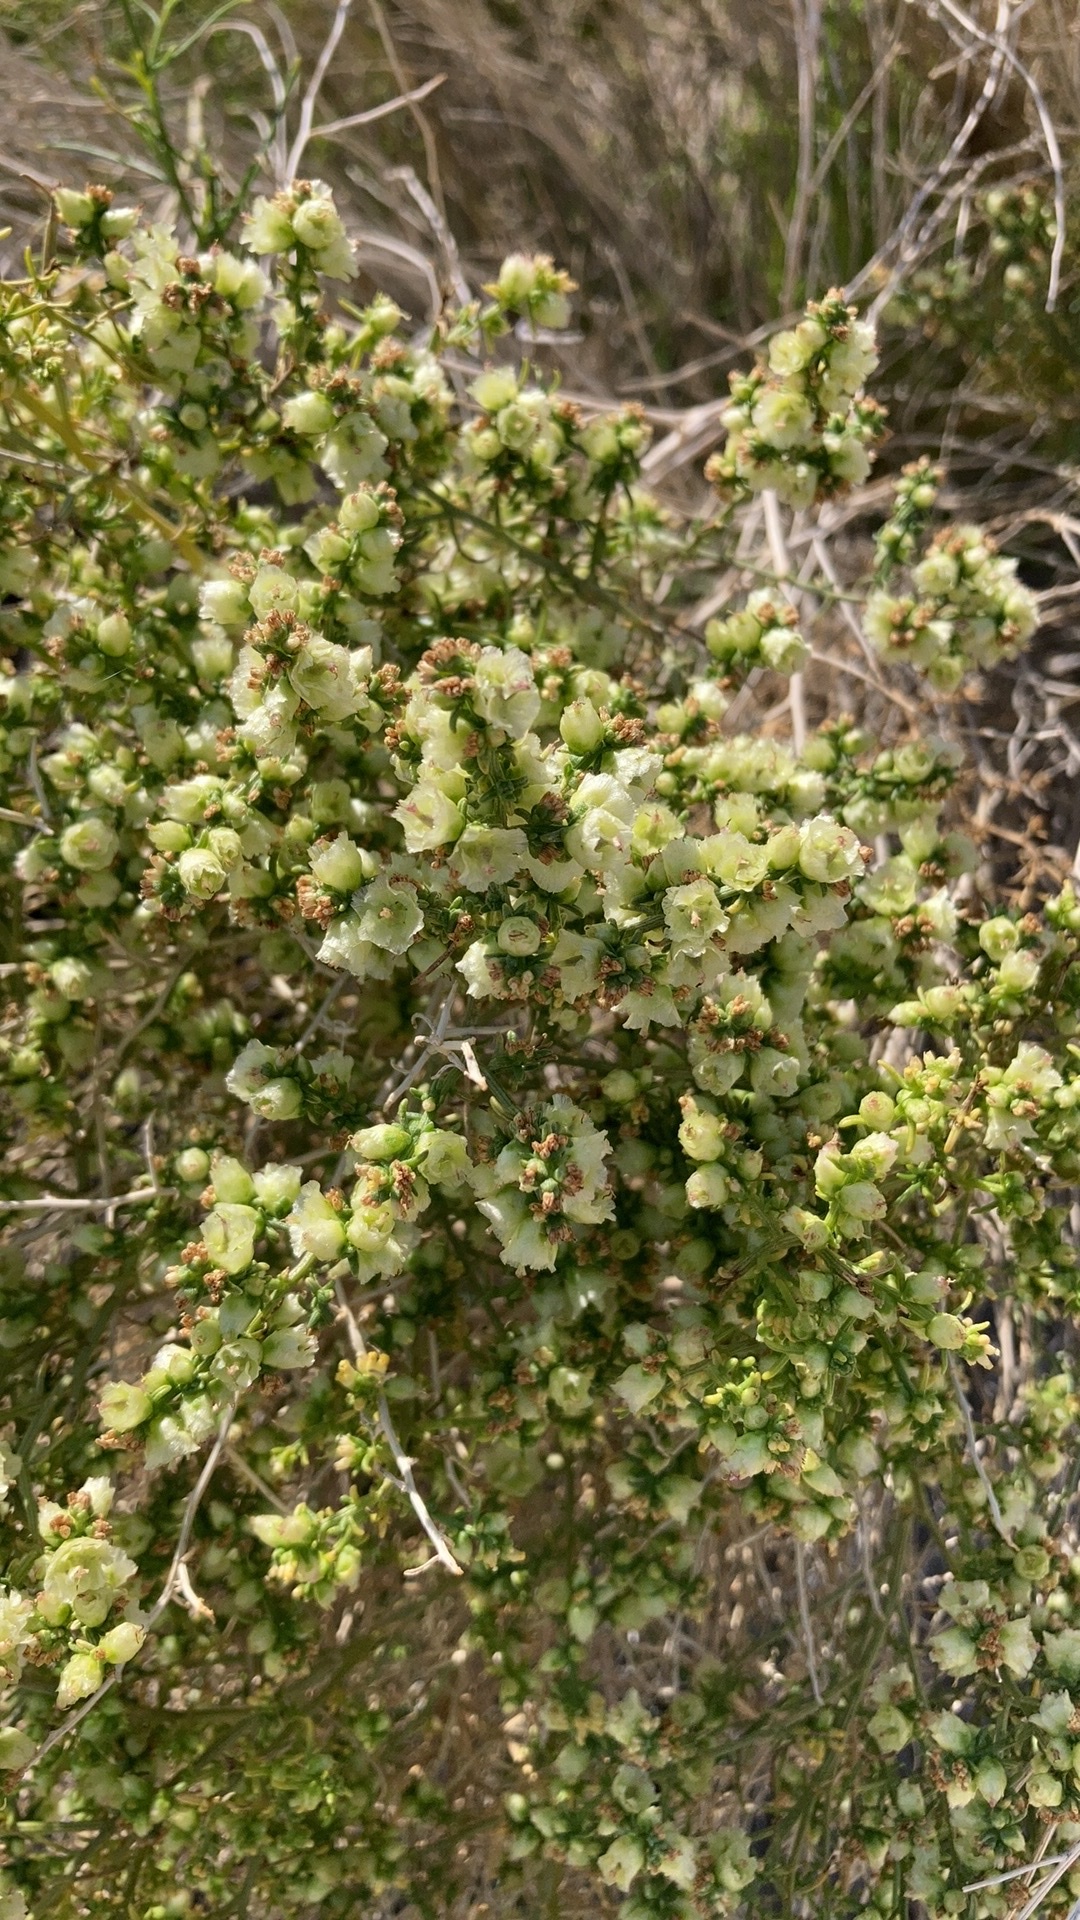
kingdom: Plantae
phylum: Tracheophyta
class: Magnoliopsida
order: Asterales
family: Asteraceae
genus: Ambrosia
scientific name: Ambrosia salsola
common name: Burrobrush
